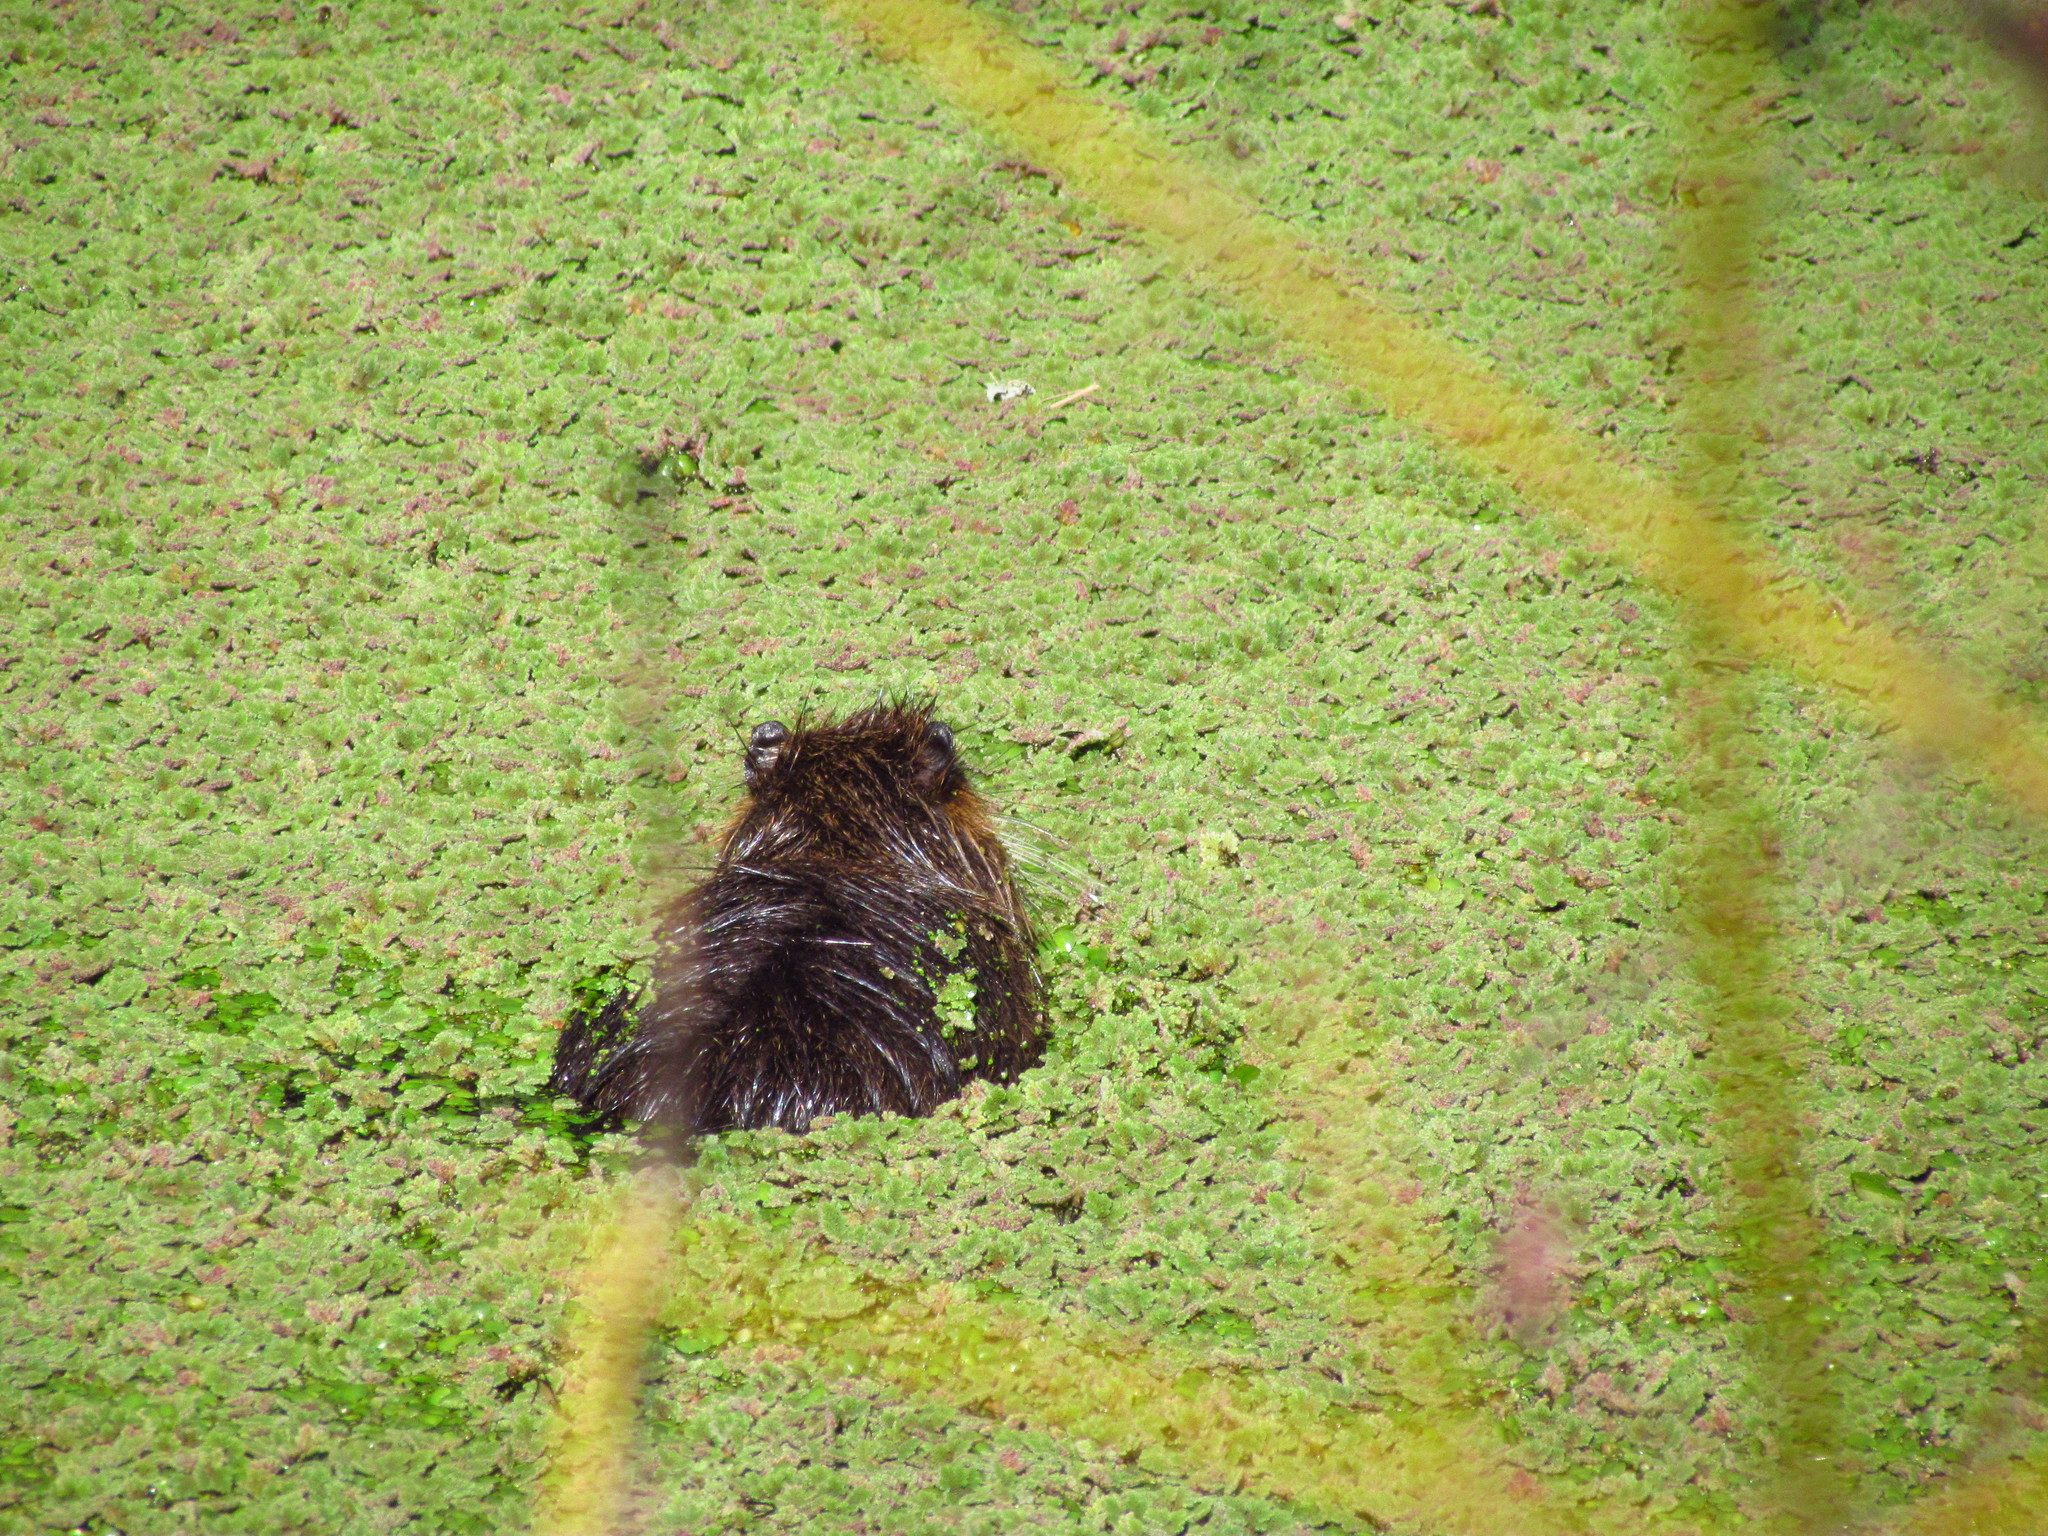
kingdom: Animalia
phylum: Chordata
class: Mammalia
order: Rodentia
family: Myocastoridae
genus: Myocastor
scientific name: Myocastor coypus
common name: Coypu
